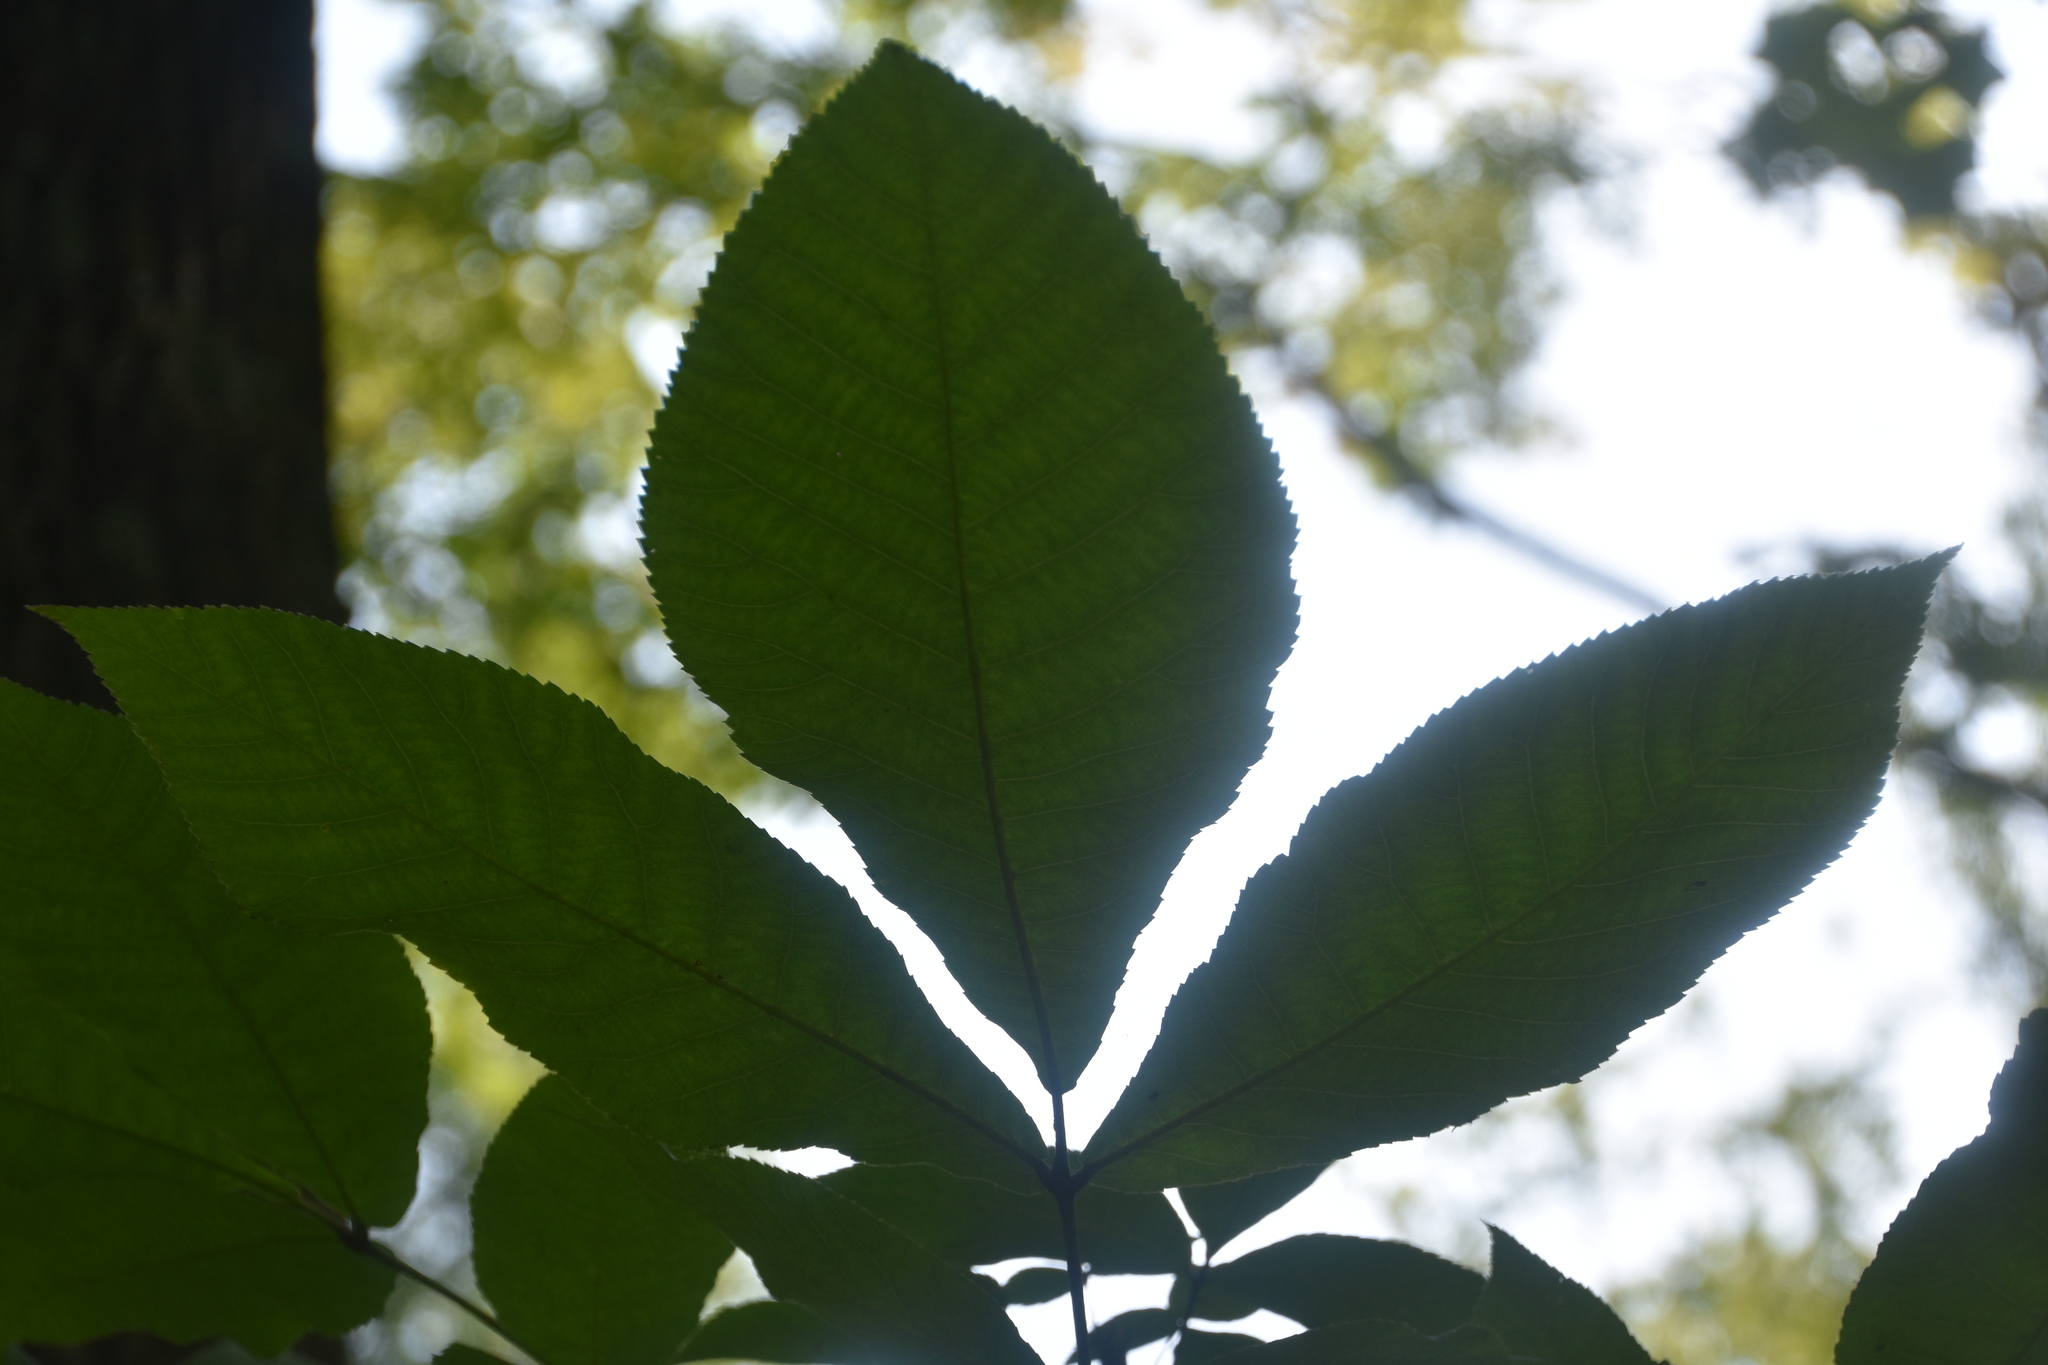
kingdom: Plantae
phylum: Tracheophyta
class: Magnoliopsida
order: Fagales
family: Juglandaceae
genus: Carya
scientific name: Carya ovata
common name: Shagbark hickory
